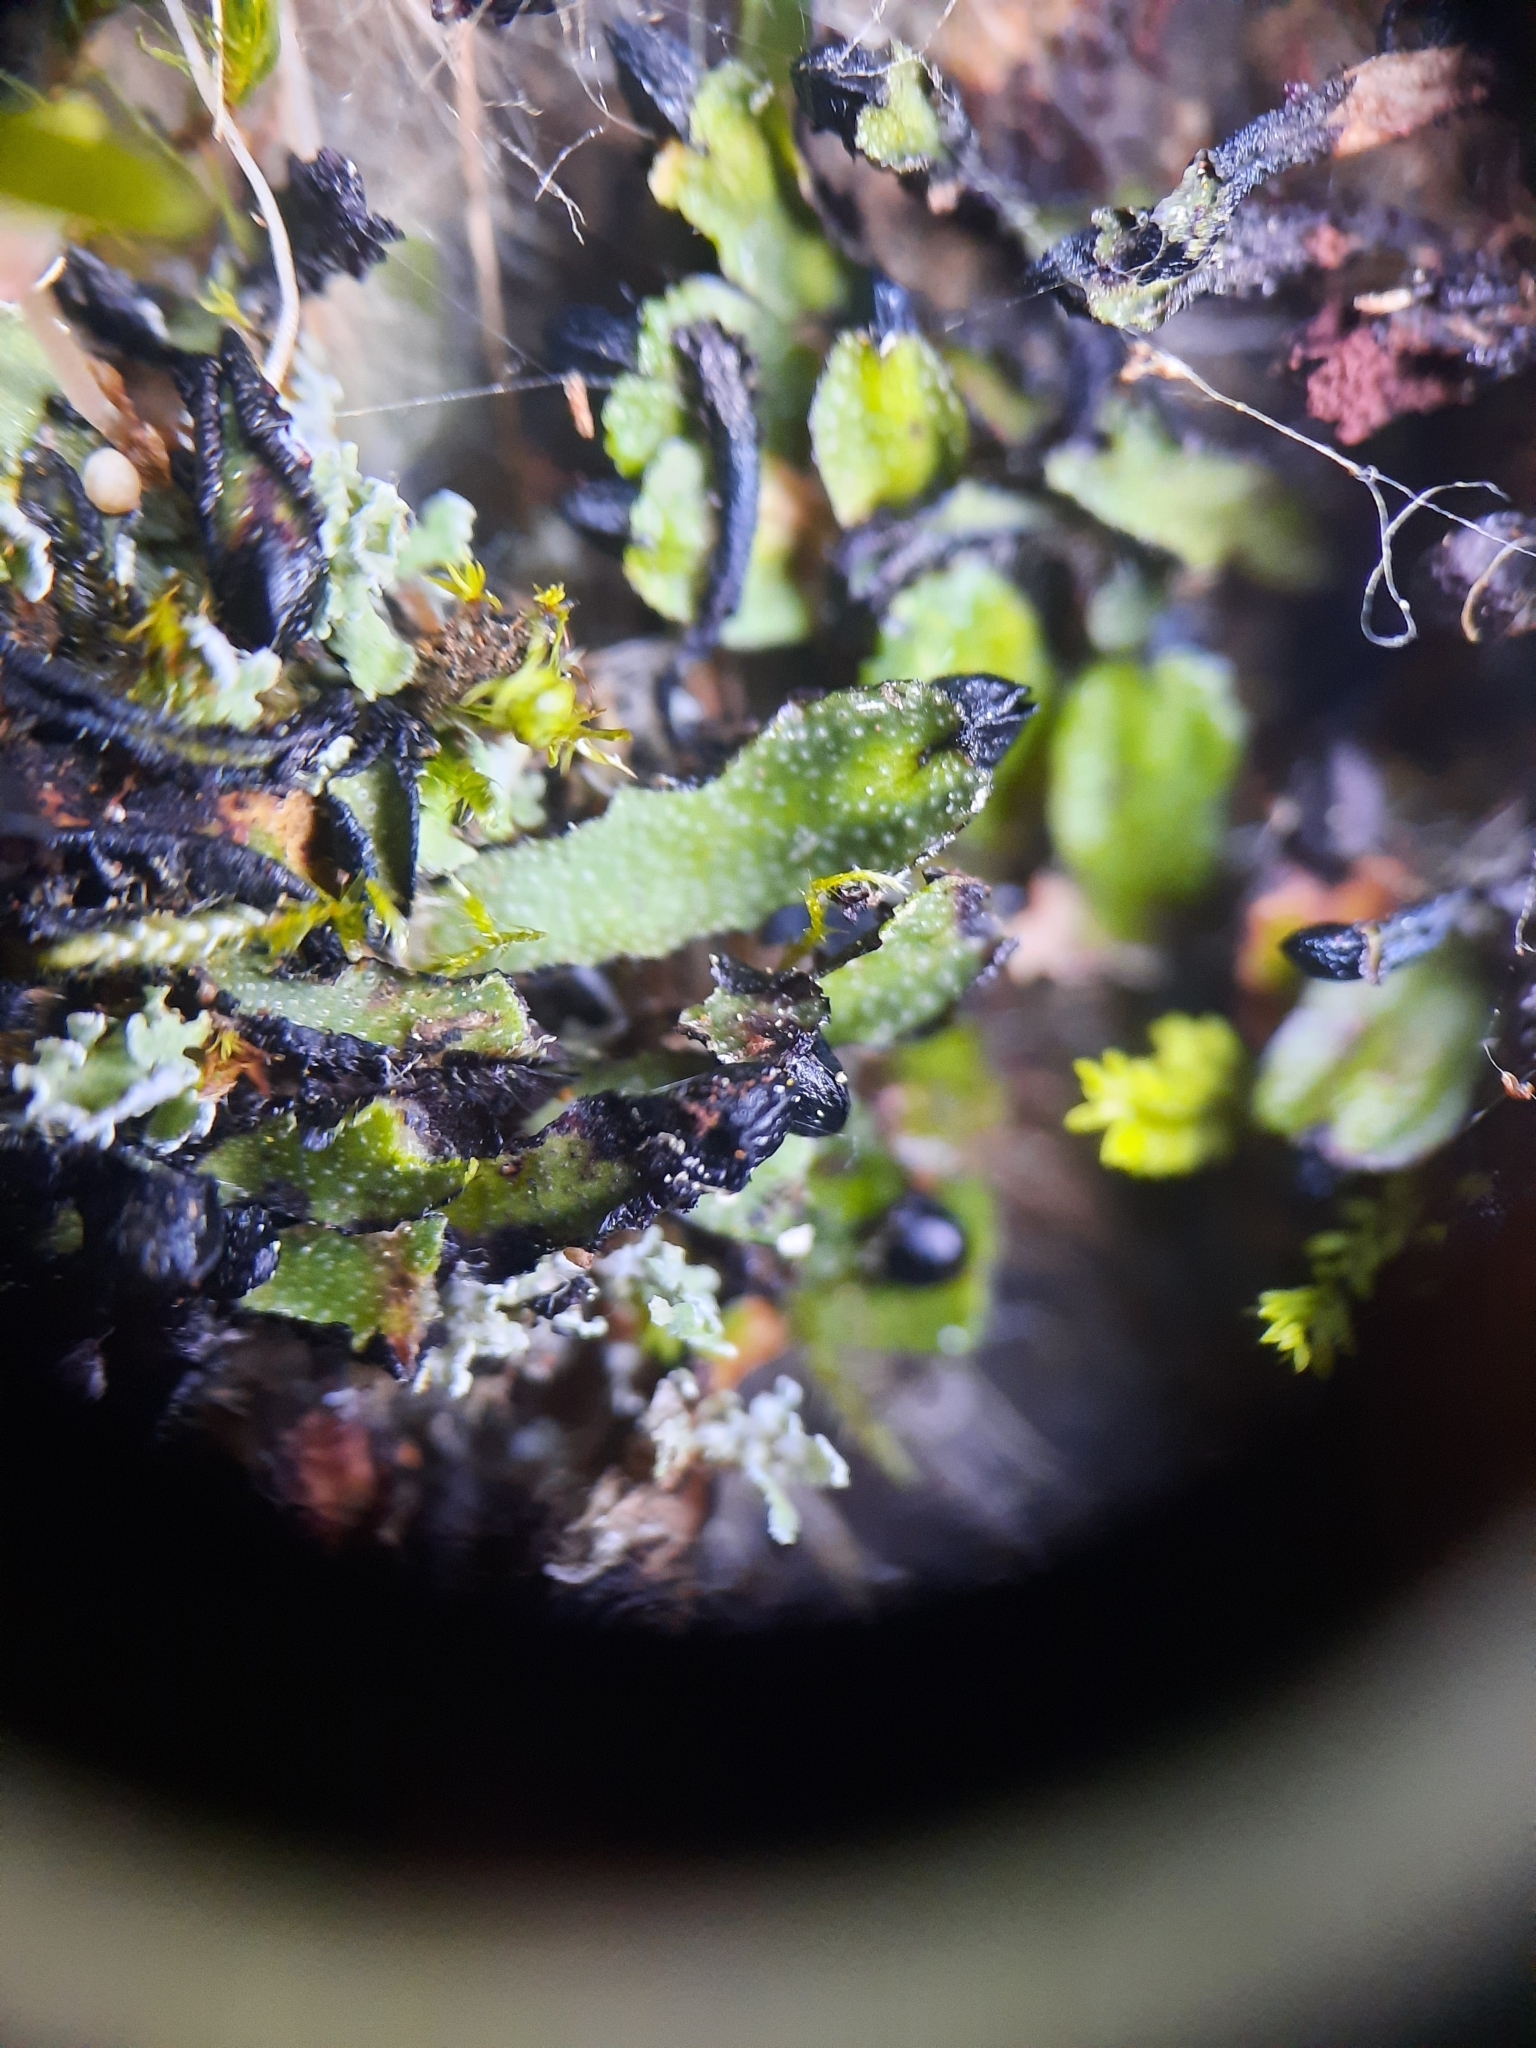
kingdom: Plantae
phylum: Marchantiophyta
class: Marchantiopsida
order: Marchantiales
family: Targioniaceae
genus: Targionia
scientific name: Targionia hypophylla
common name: Orobus-seed liverwort
